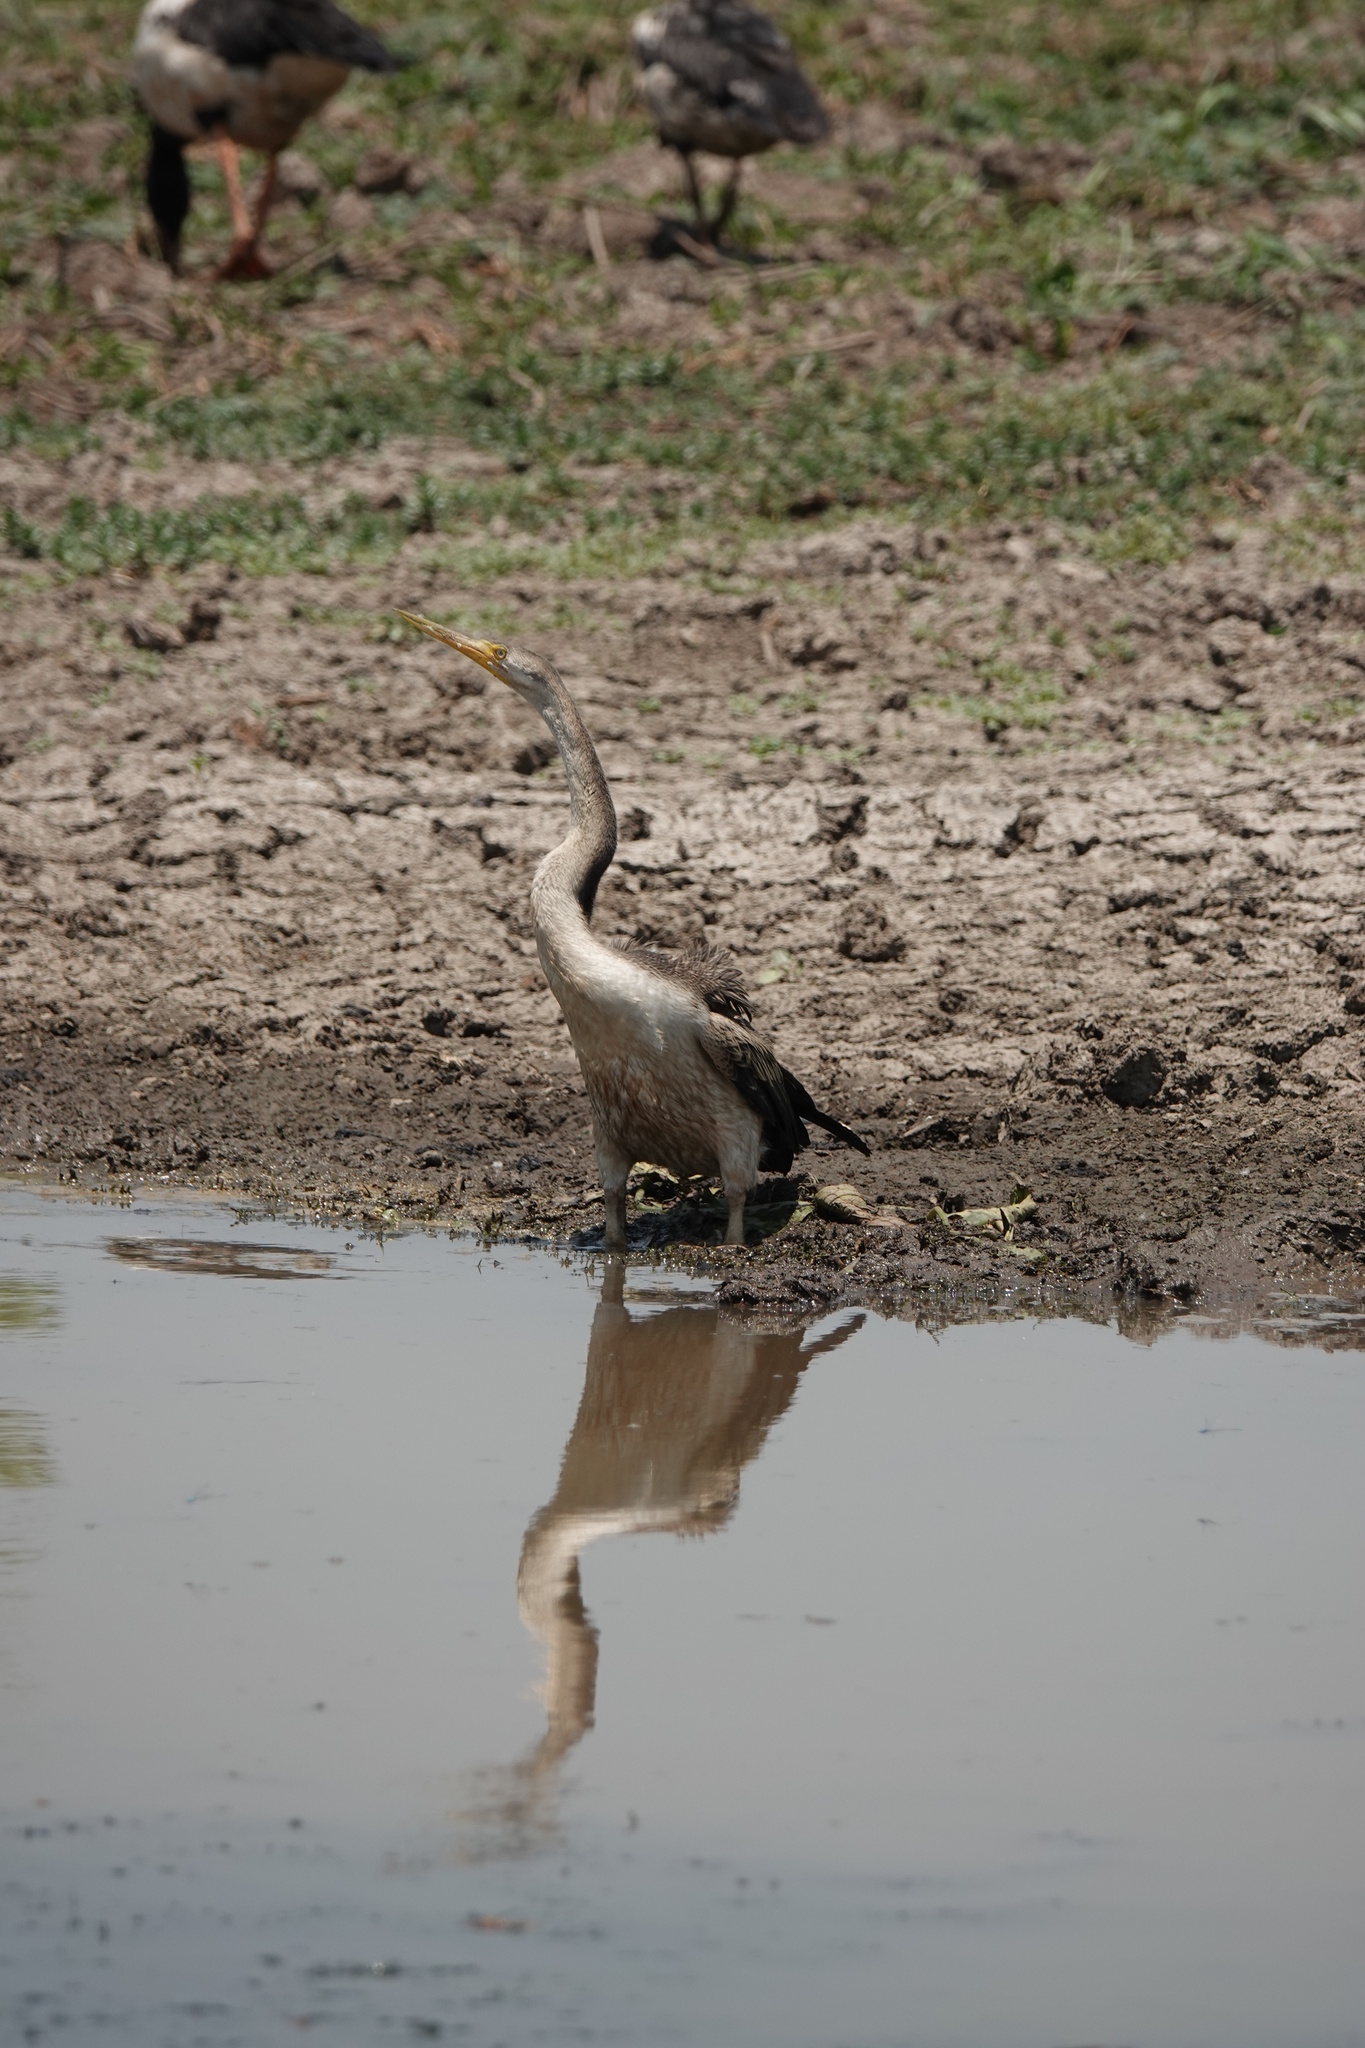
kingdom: Animalia
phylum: Chordata
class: Aves
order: Suliformes
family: Anhingidae
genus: Anhinga
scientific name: Anhinga novaehollandiae
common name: Australasian darter
